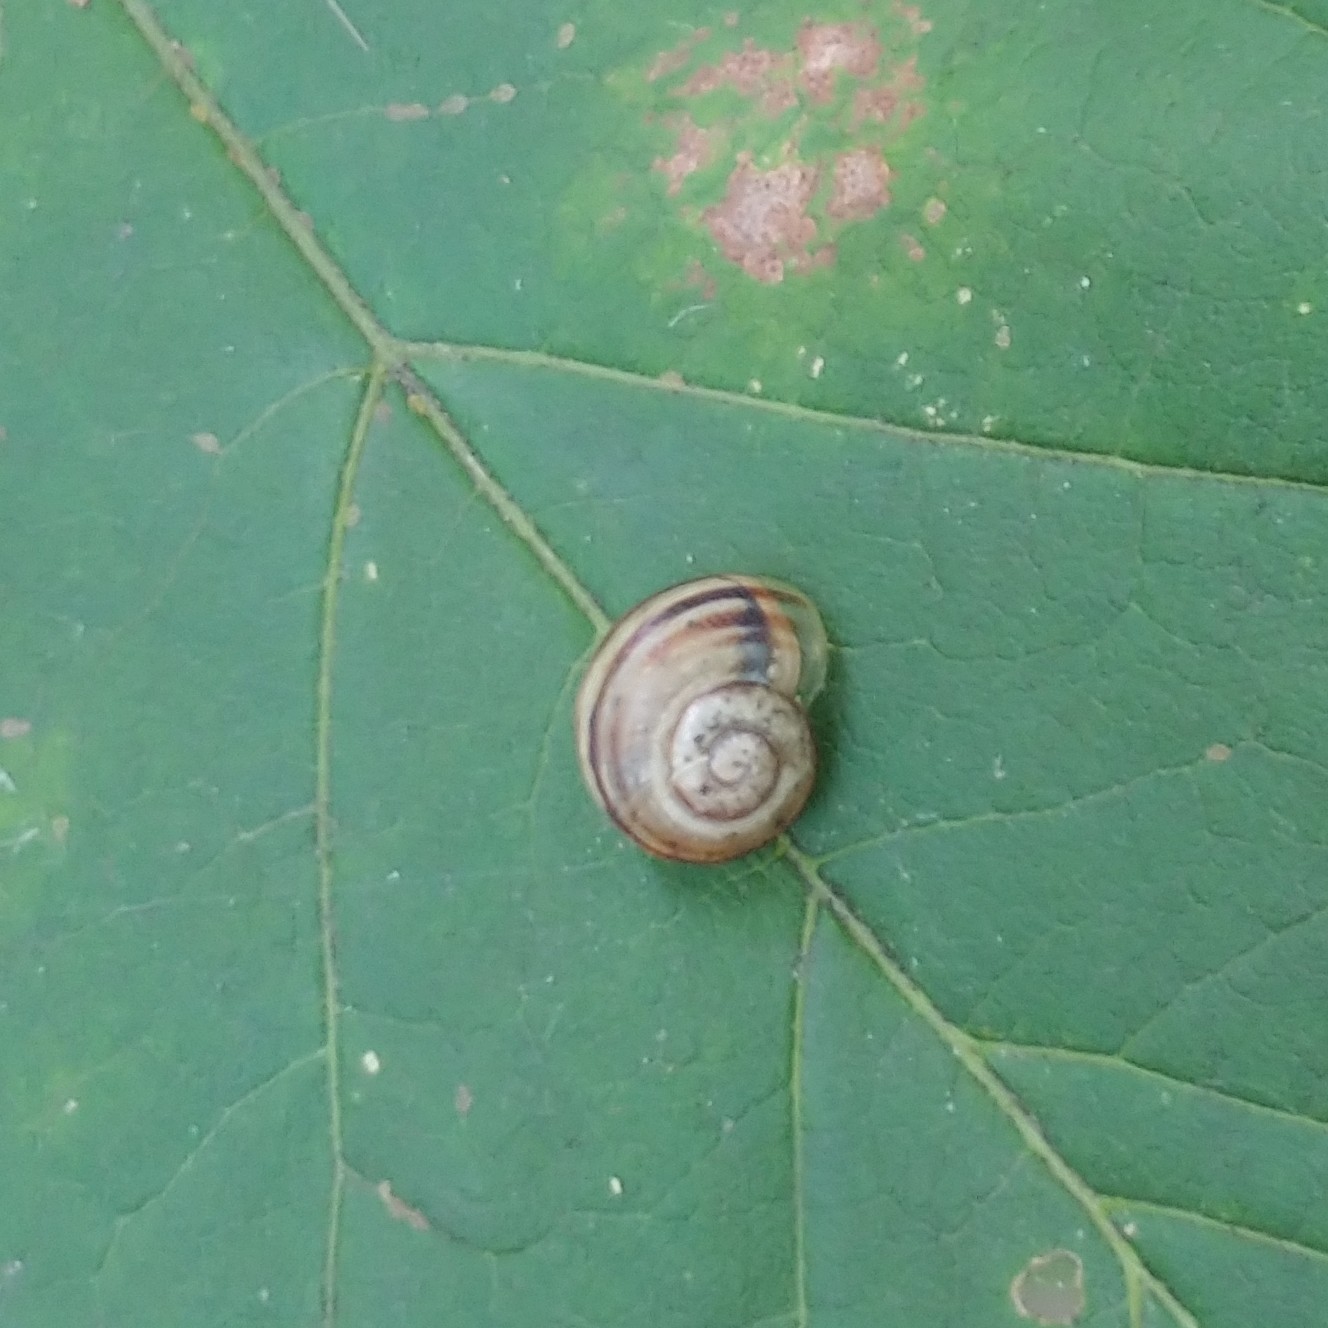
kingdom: Animalia
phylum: Mollusca
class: Gastropoda
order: Stylommatophora
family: Helicidae
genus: Cepaea
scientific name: Cepaea
